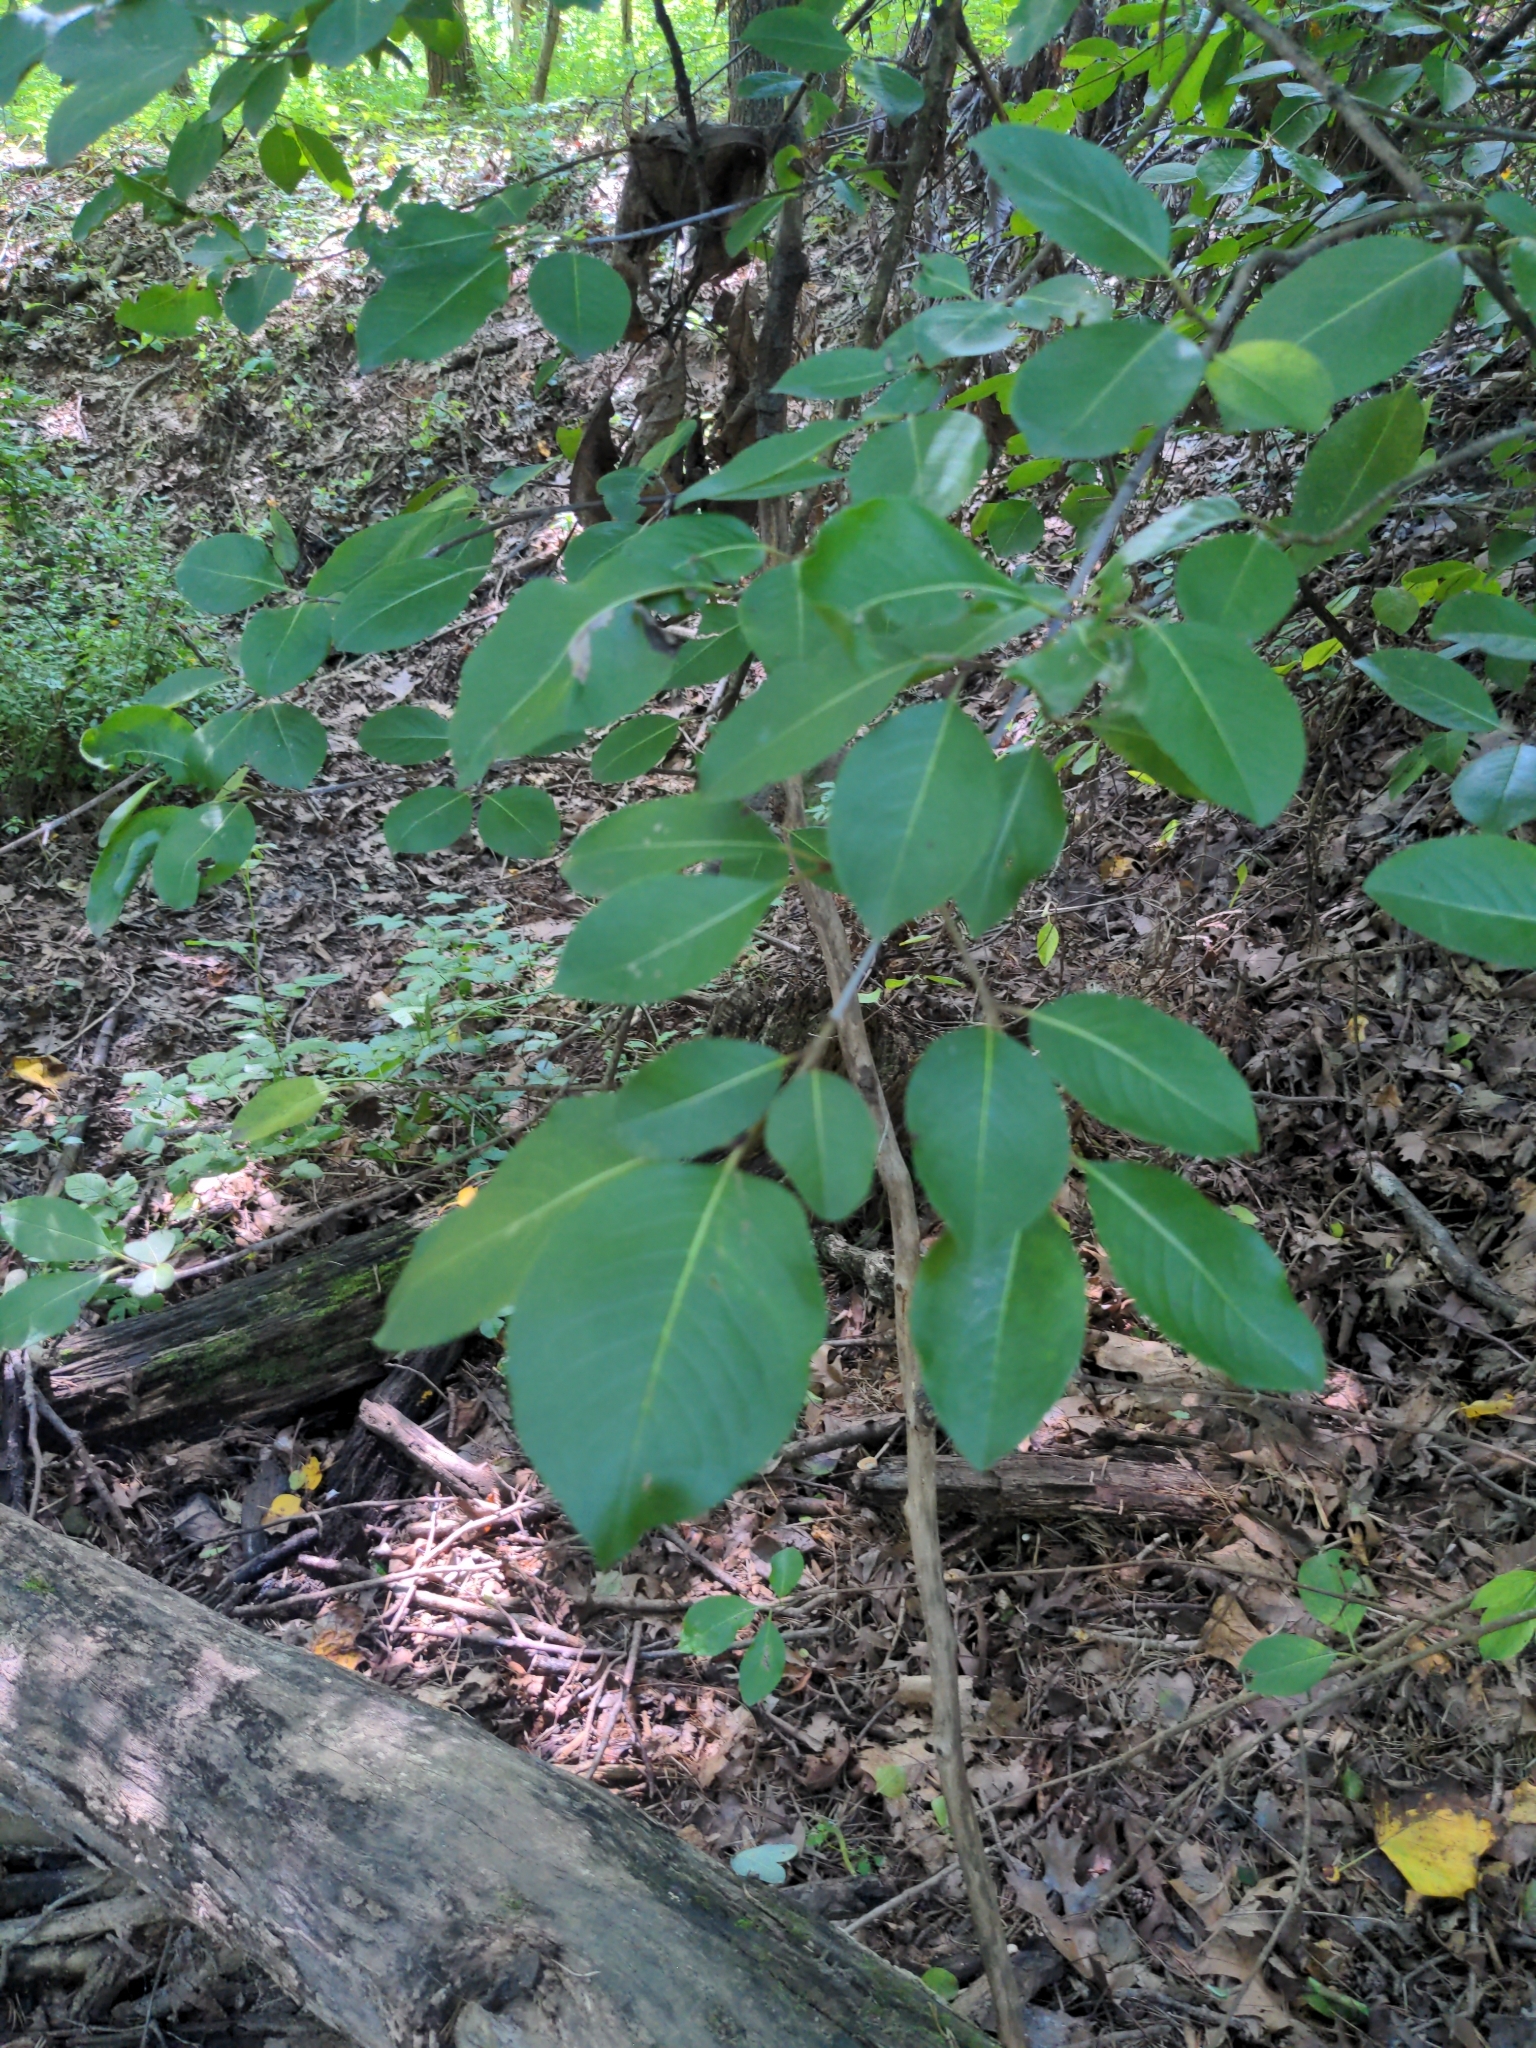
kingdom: Plantae
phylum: Tracheophyta
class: Magnoliopsida
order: Dipsacales
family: Viburnaceae
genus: Viburnum
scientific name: Viburnum prunifolium
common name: Black haw
